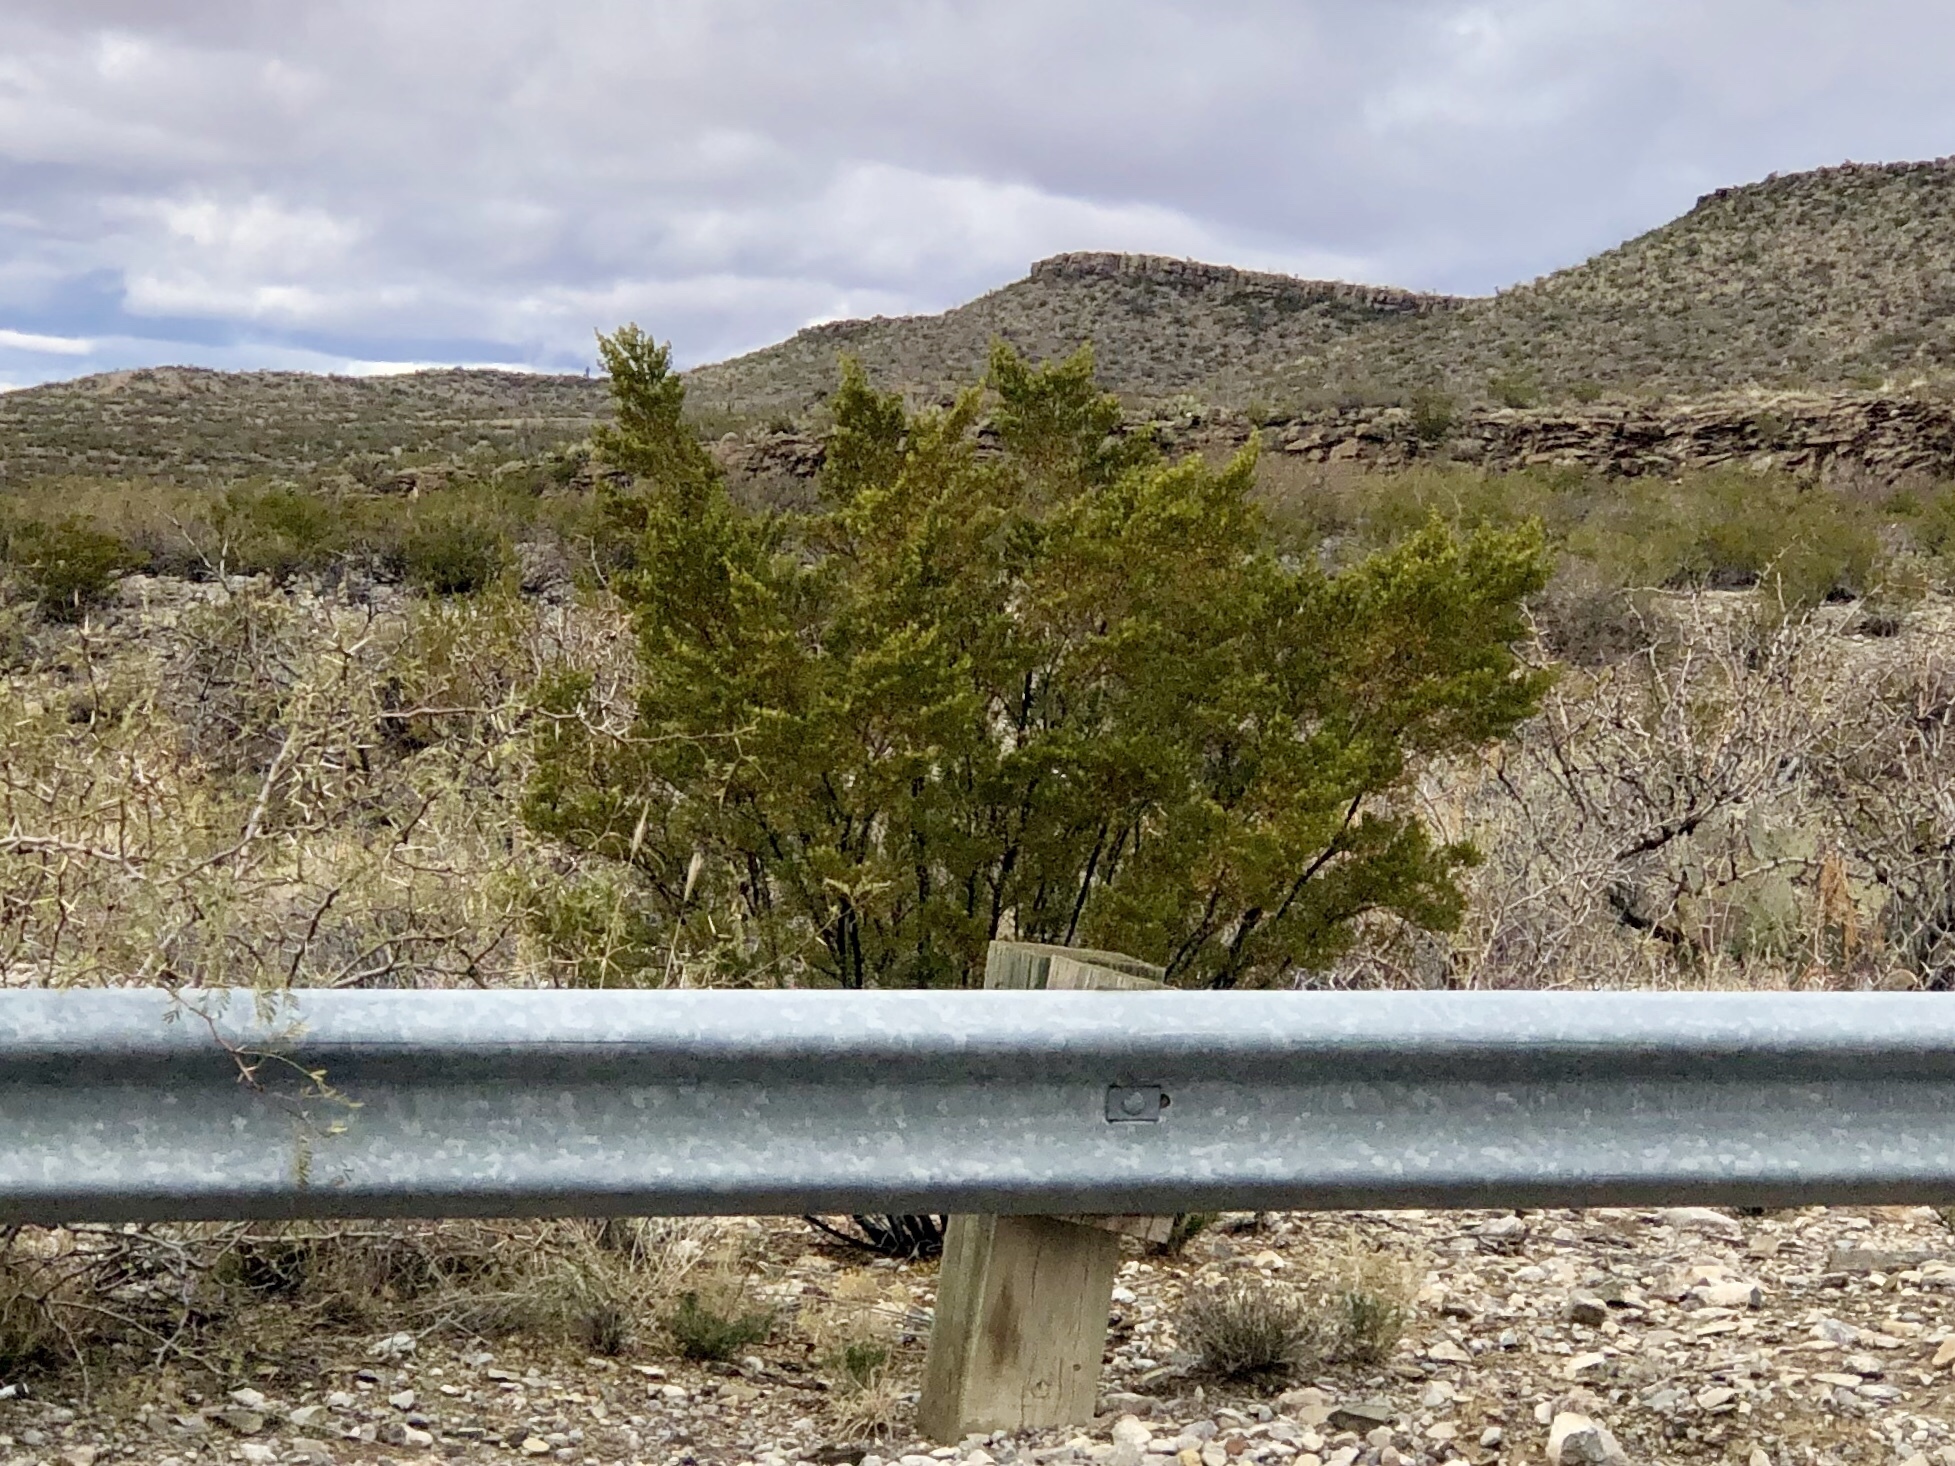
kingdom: Plantae
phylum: Tracheophyta
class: Magnoliopsida
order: Zygophyllales
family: Zygophyllaceae
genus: Larrea
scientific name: Larrea tridentata
